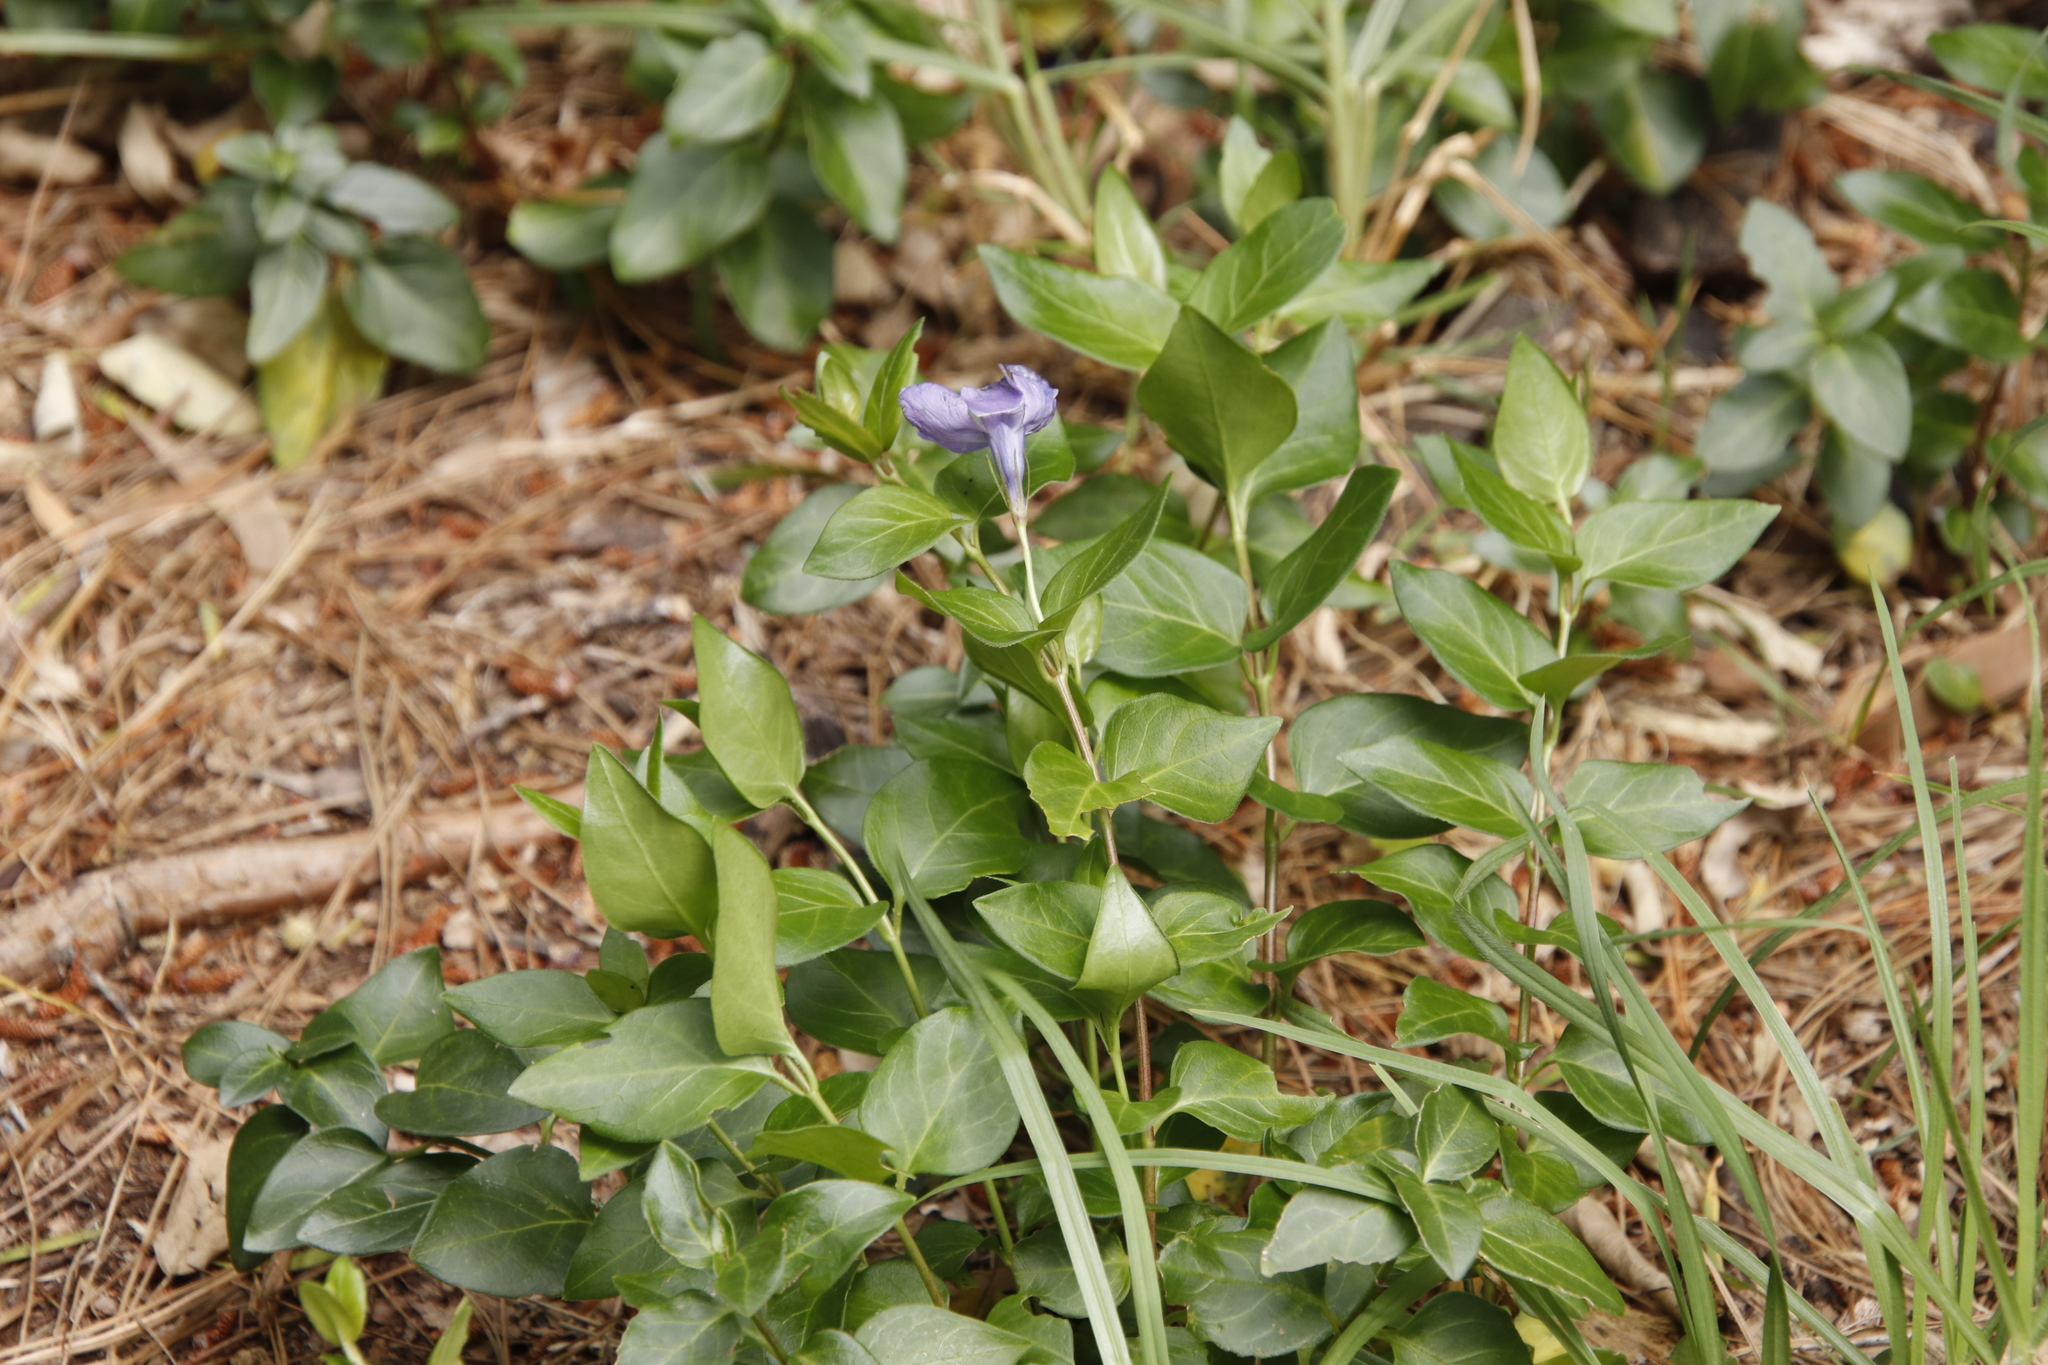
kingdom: Plantae
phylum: Tracheophyta
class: Magnoliopsida
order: Gentianales
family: Apocynaceae
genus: Vinca
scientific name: Vinca major
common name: Greater periwinkle
